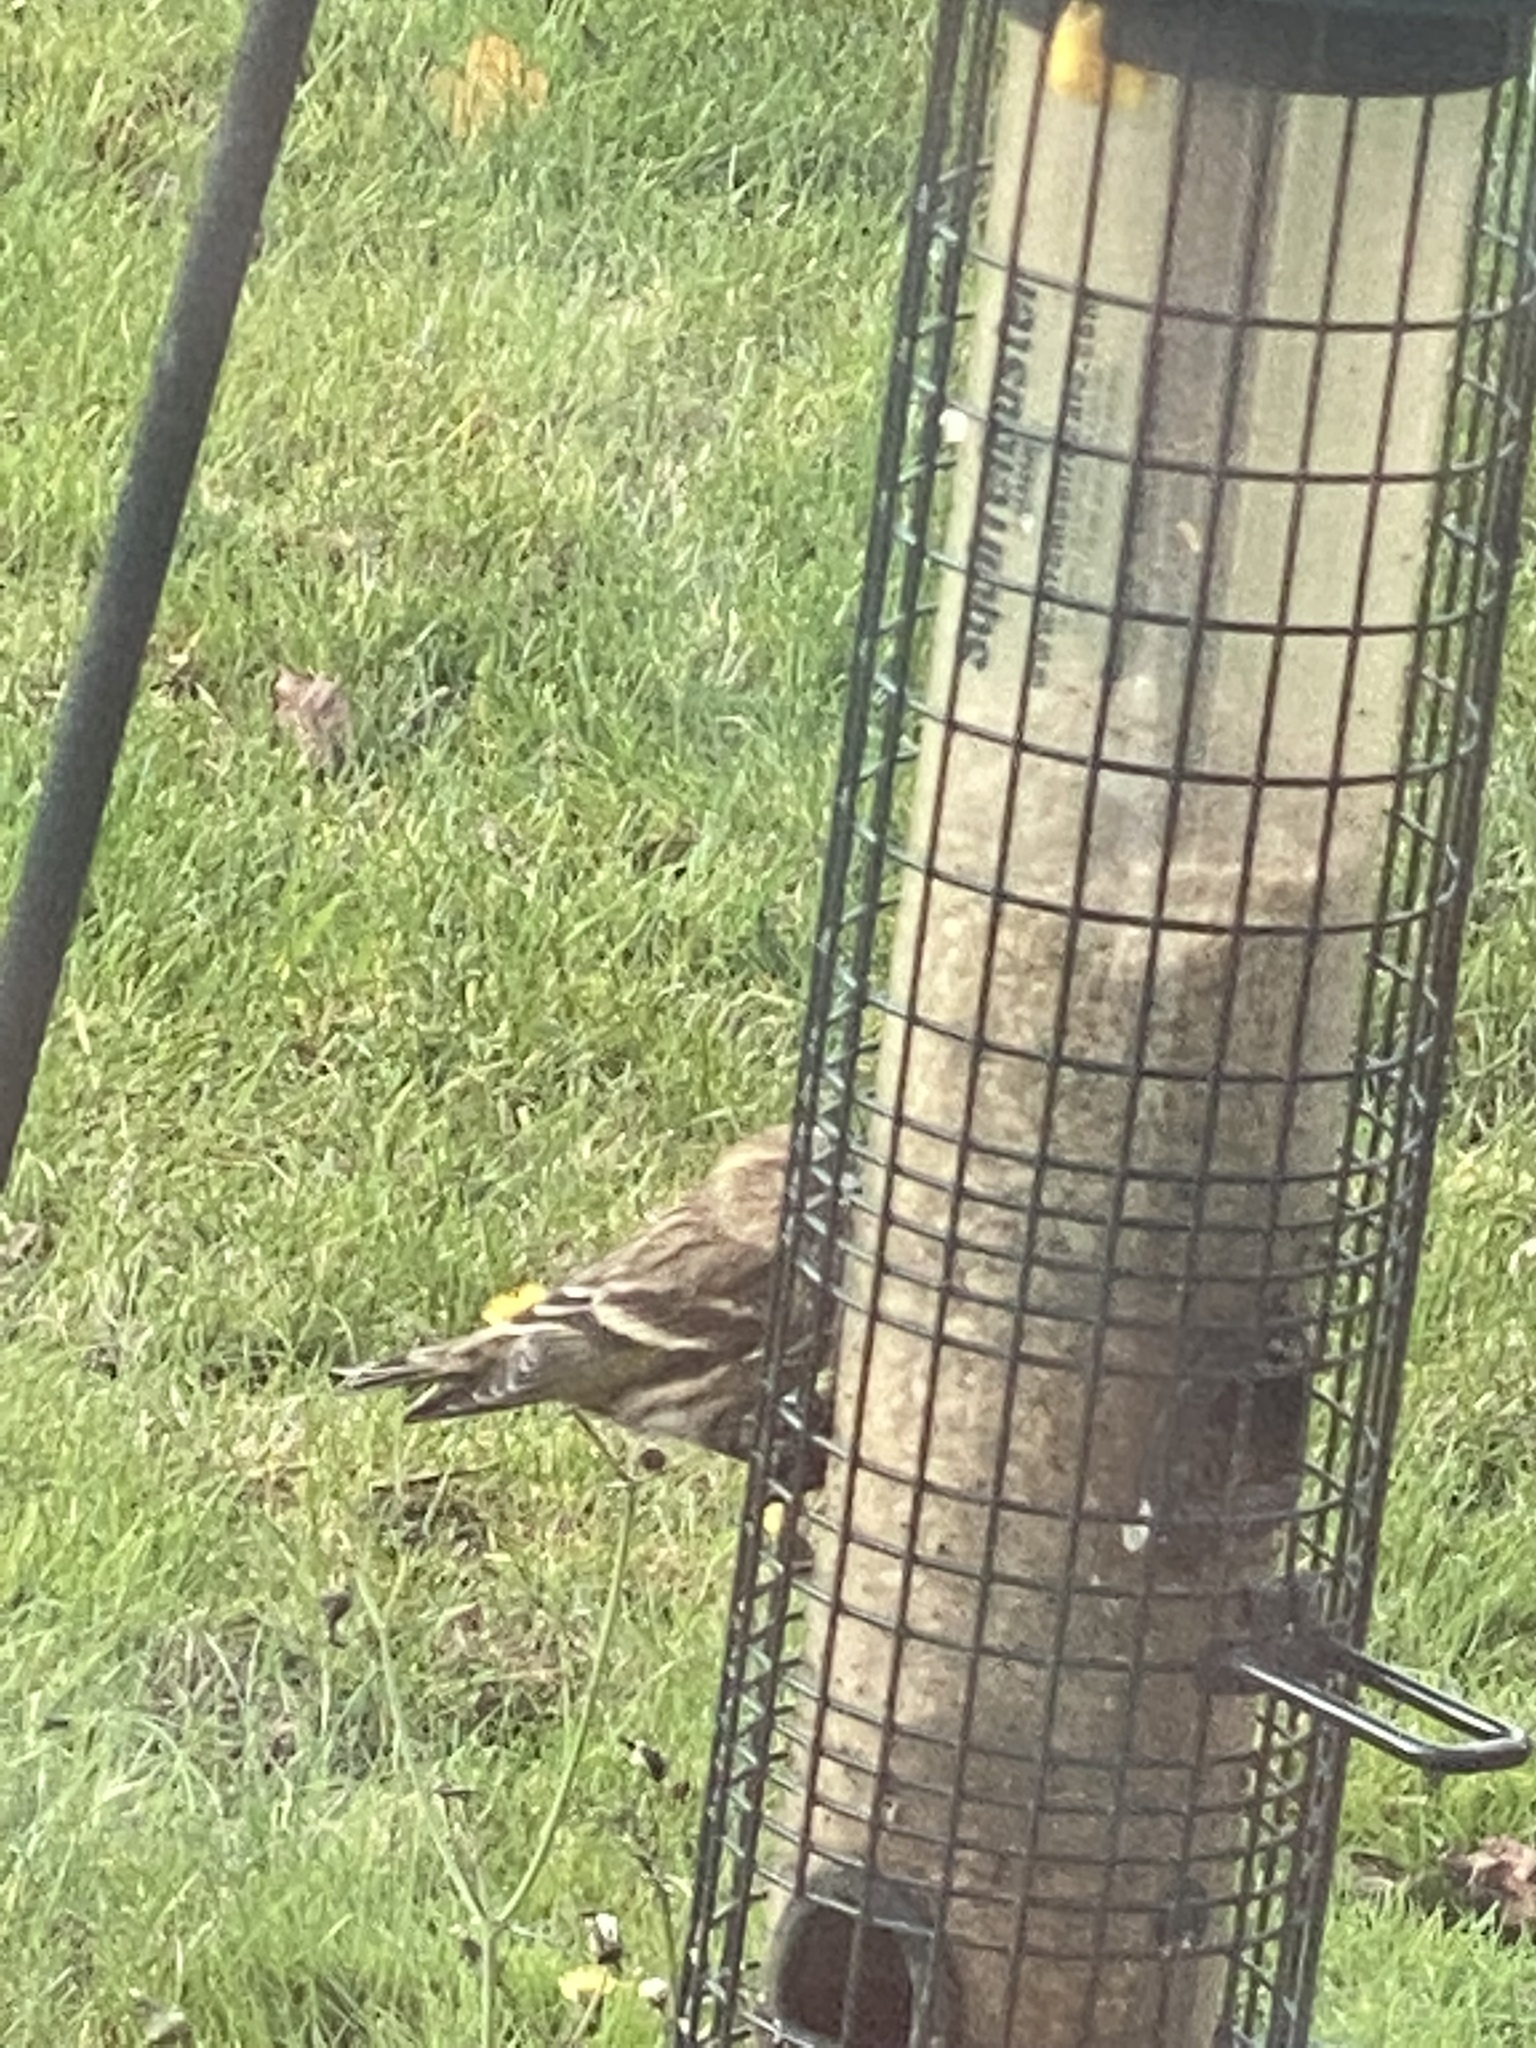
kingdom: Animalia
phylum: Chordata
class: Aves
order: Passeriformes
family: Fringillidae
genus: Spinus
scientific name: Spinus pinus
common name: Pine siskin
